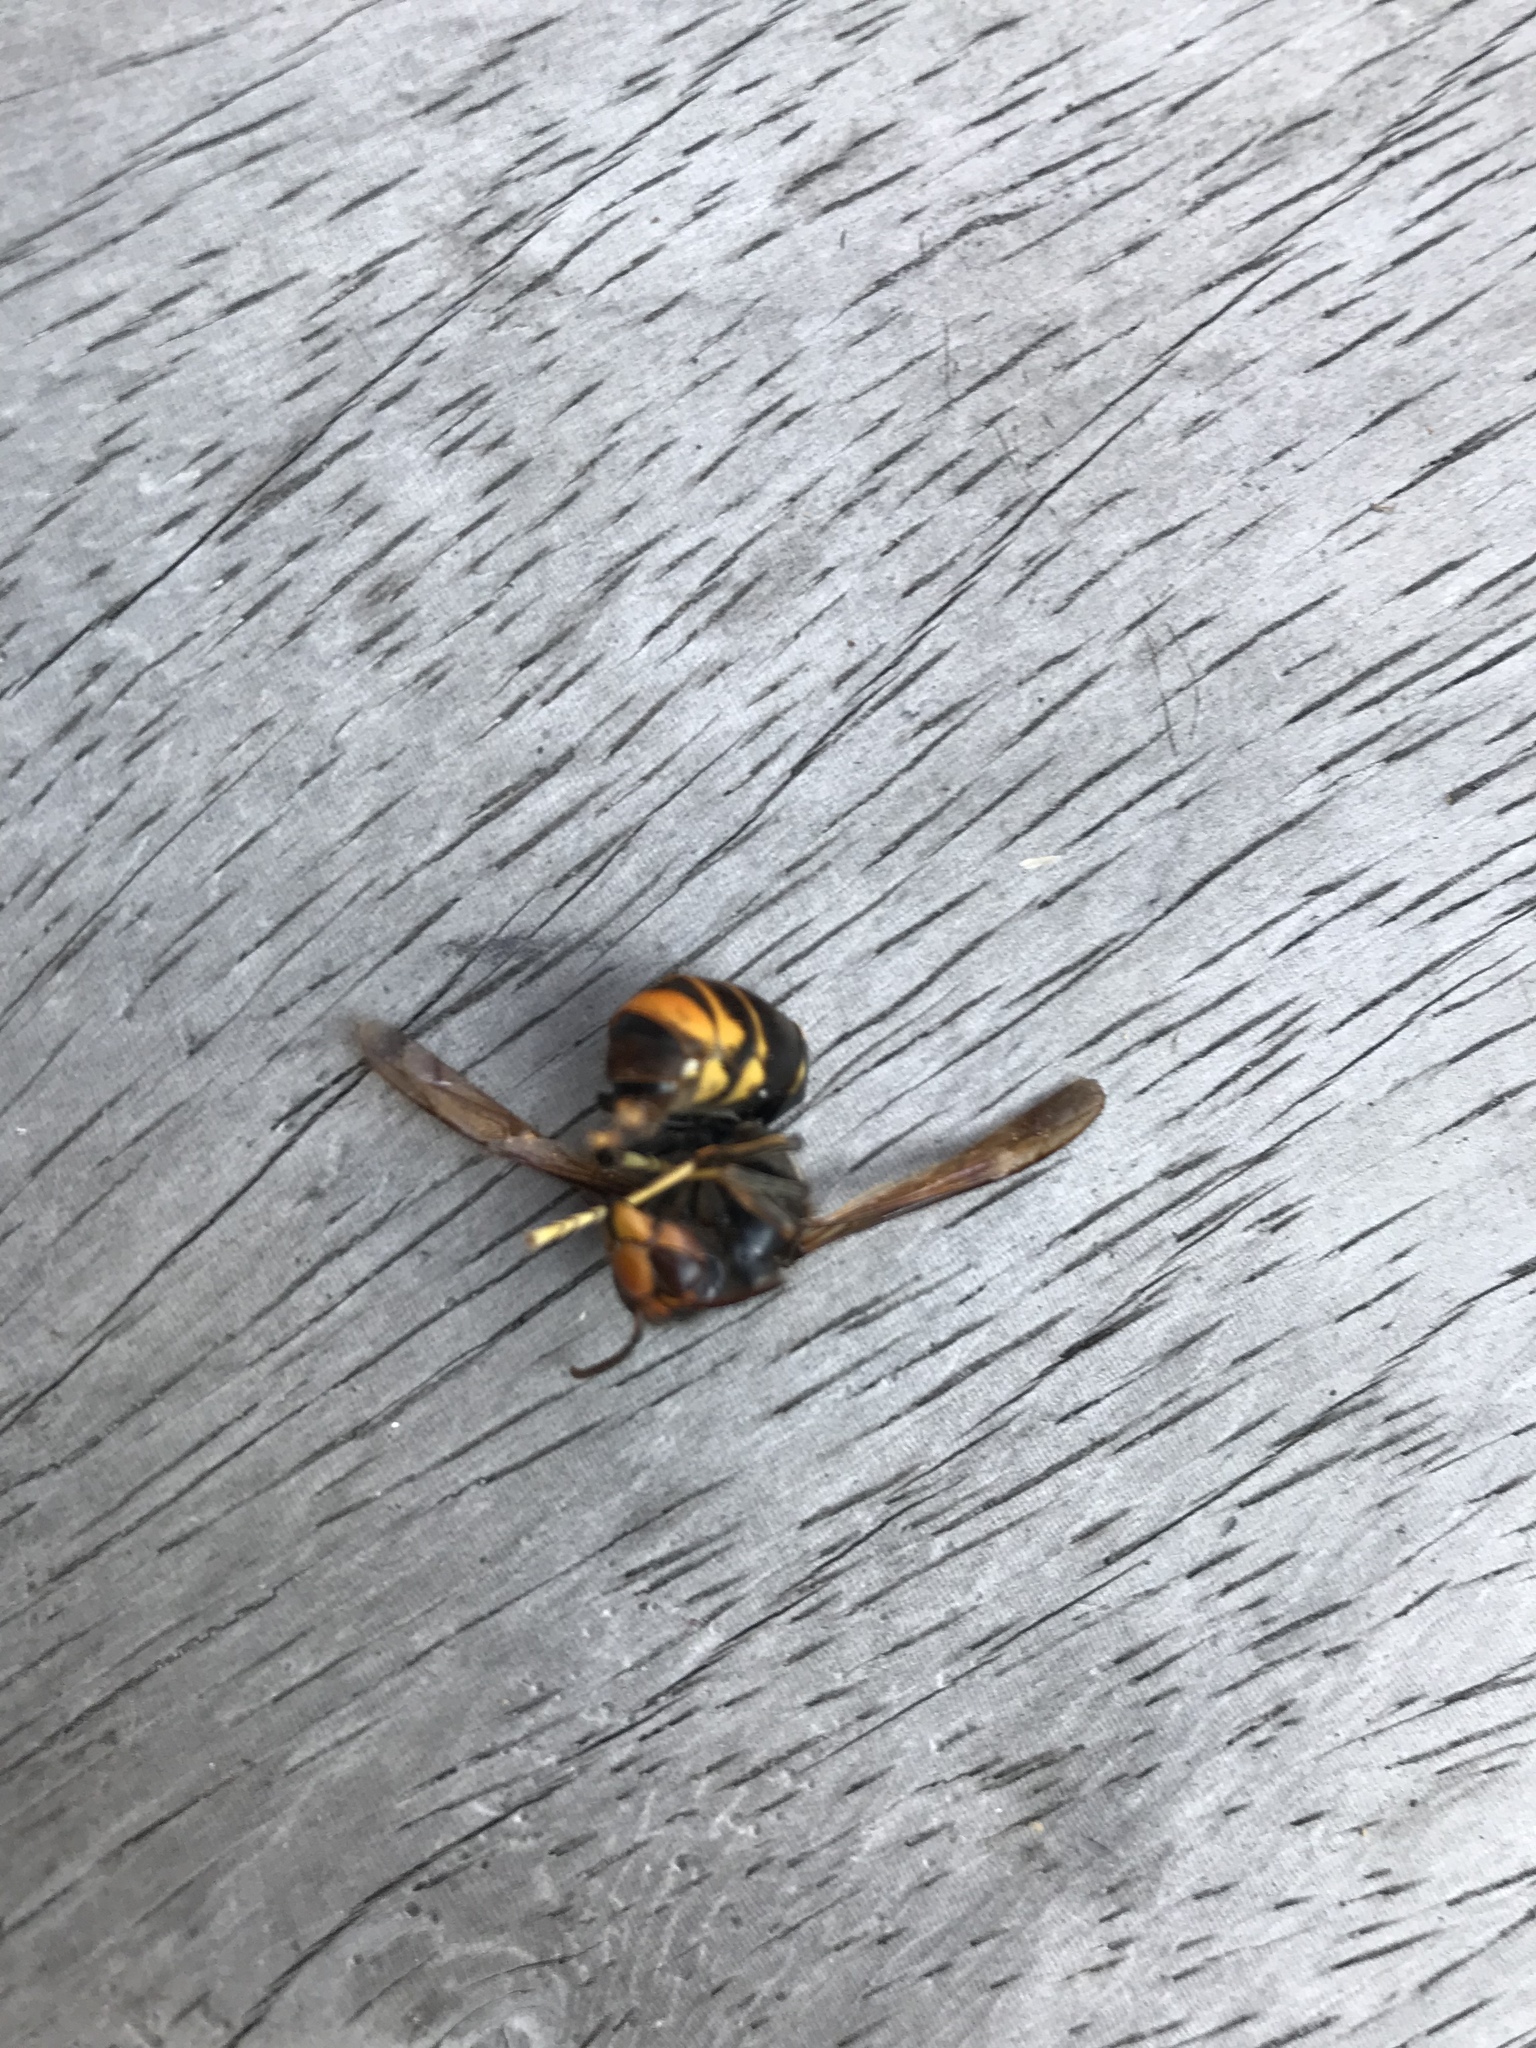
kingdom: Animalia
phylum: Arthropoda
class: Insecta
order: Hymenoptera
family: Vespidae
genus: Vespa
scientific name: Vespa velutina
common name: Asian hornet
